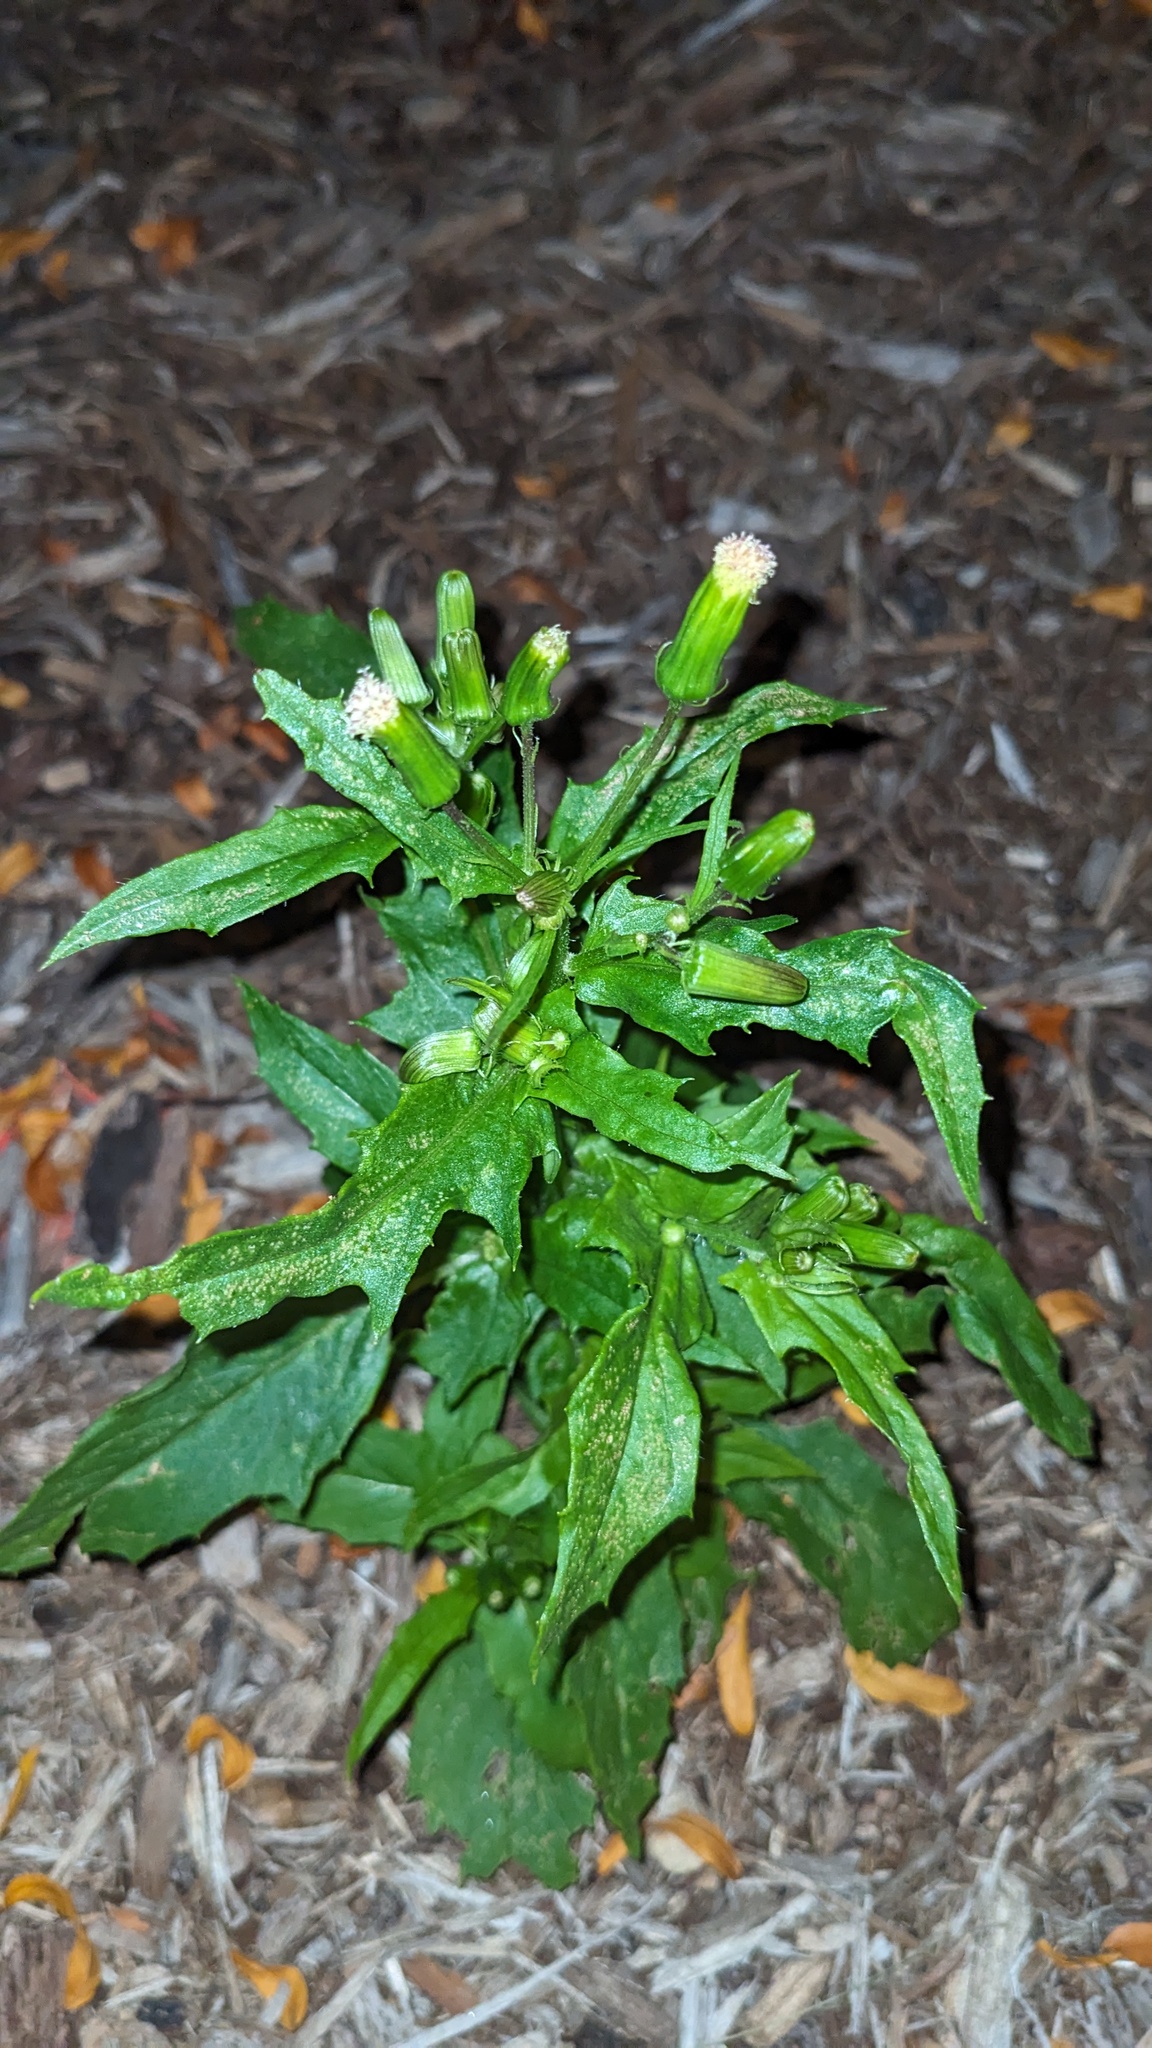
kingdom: Plantae
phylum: Tracheophyta
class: Magnoliopsida
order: Asterales
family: Asteraceae
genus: Erechtites
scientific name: Erechtites hieraciifolius
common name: American burnweed
